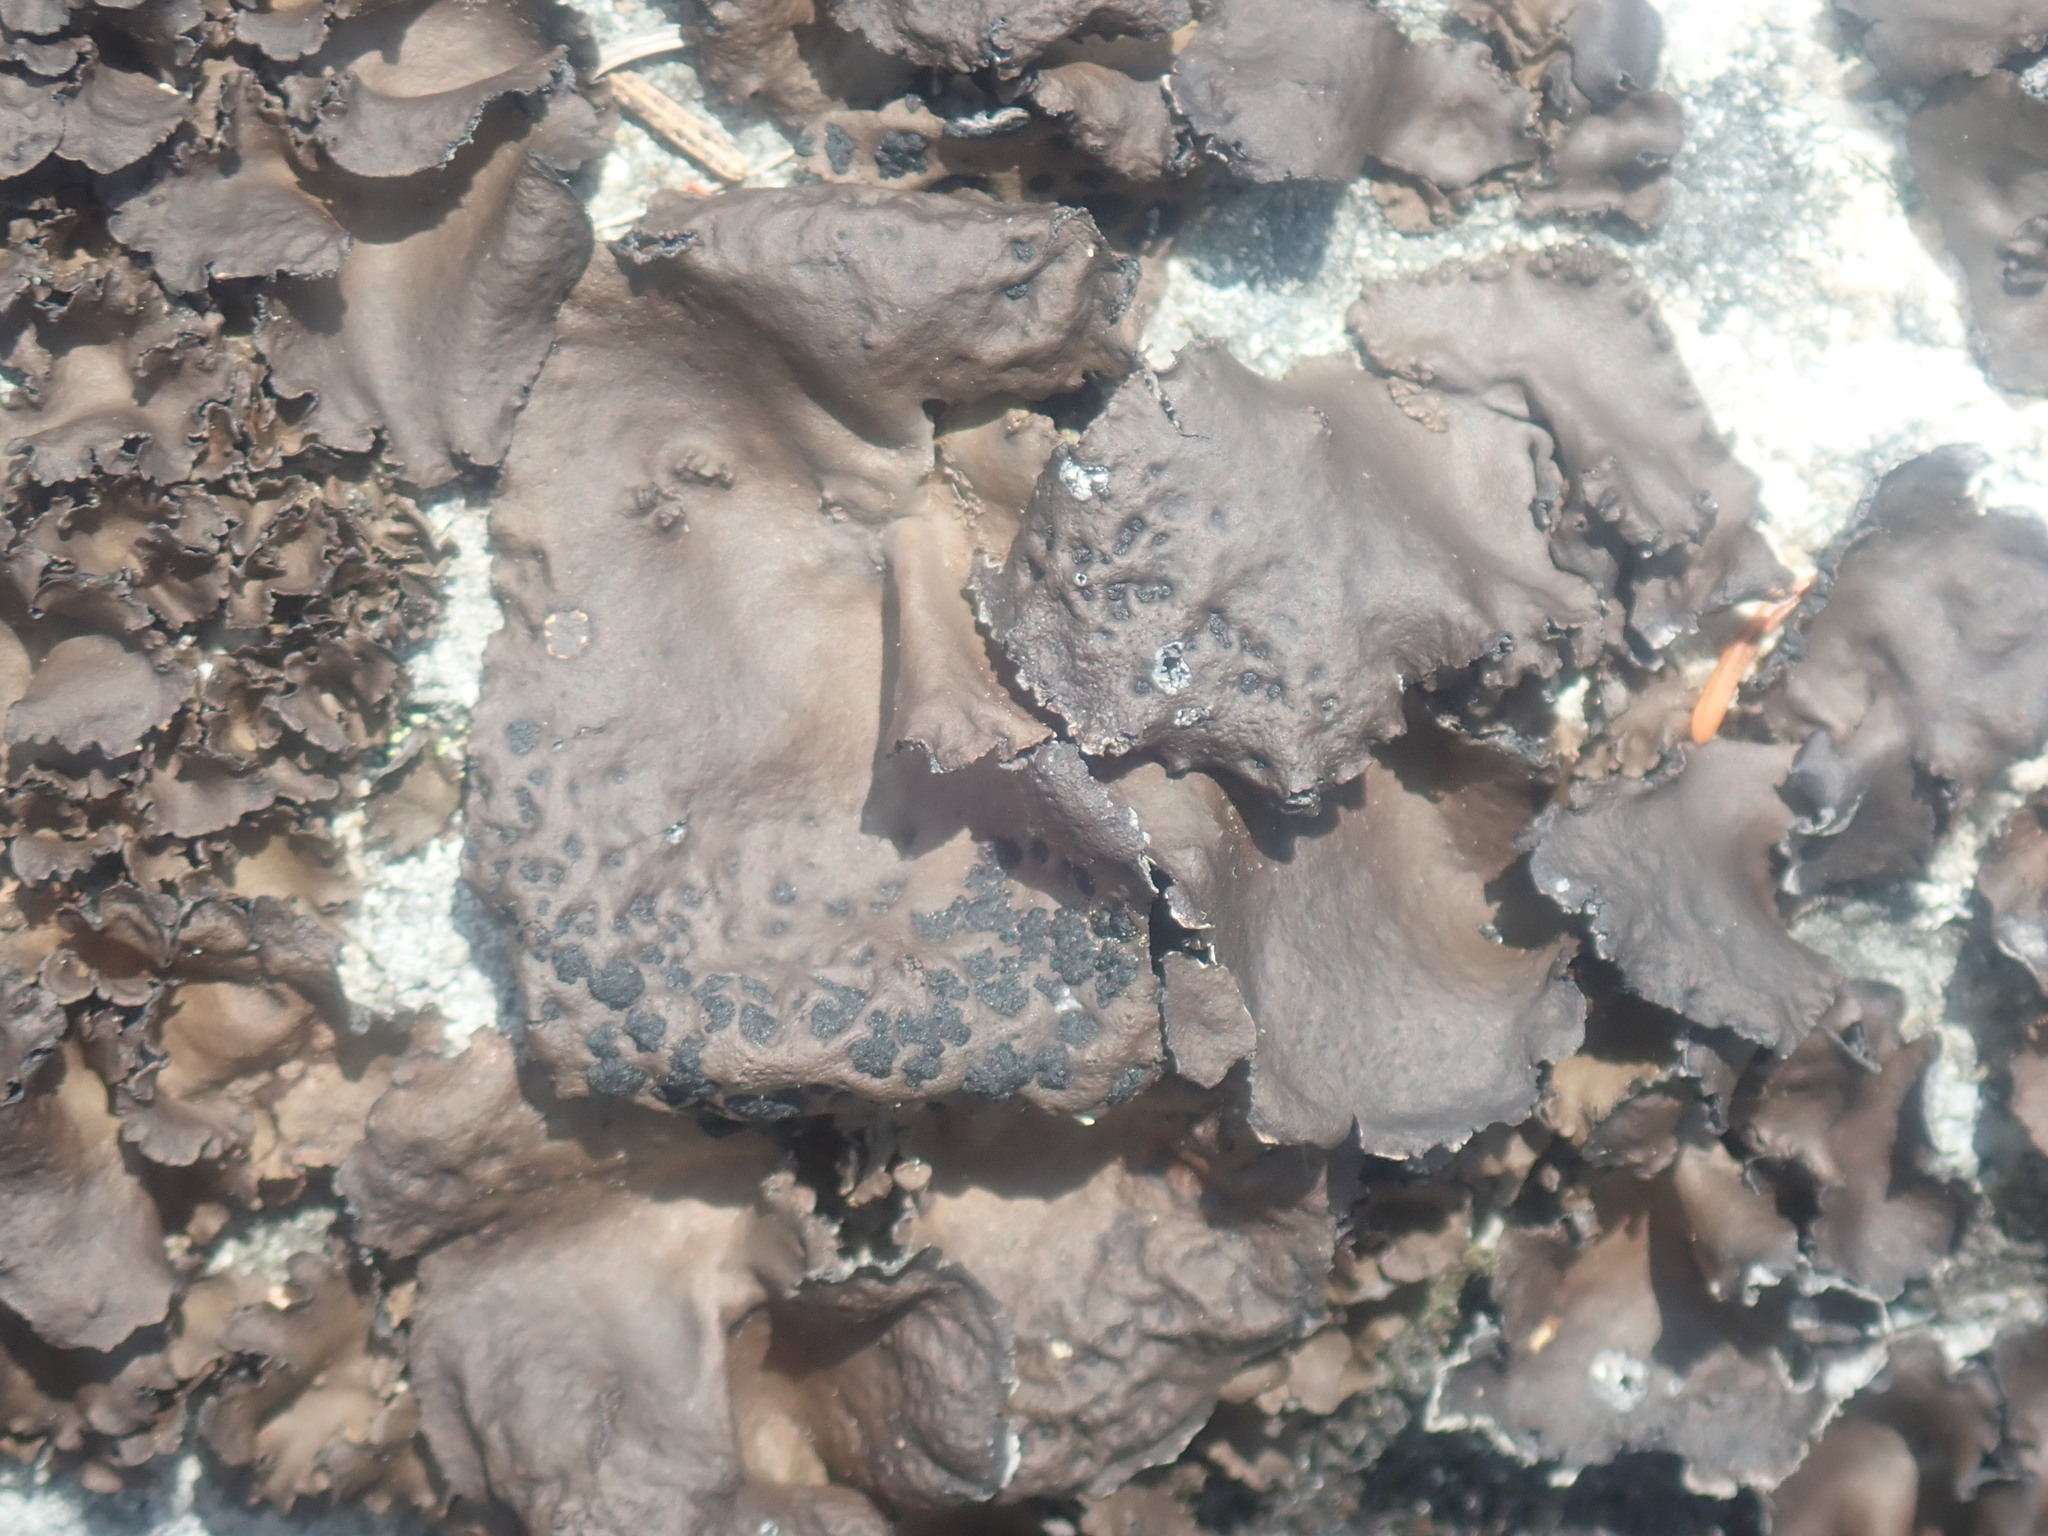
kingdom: Fungi
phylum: Ascomycota
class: Lecanoromycetes
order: Umbilicariales
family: Umbilicariaceae
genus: Umbilicaria
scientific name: Umbilicaria muhlenbergii
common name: Lesser rocktripe
